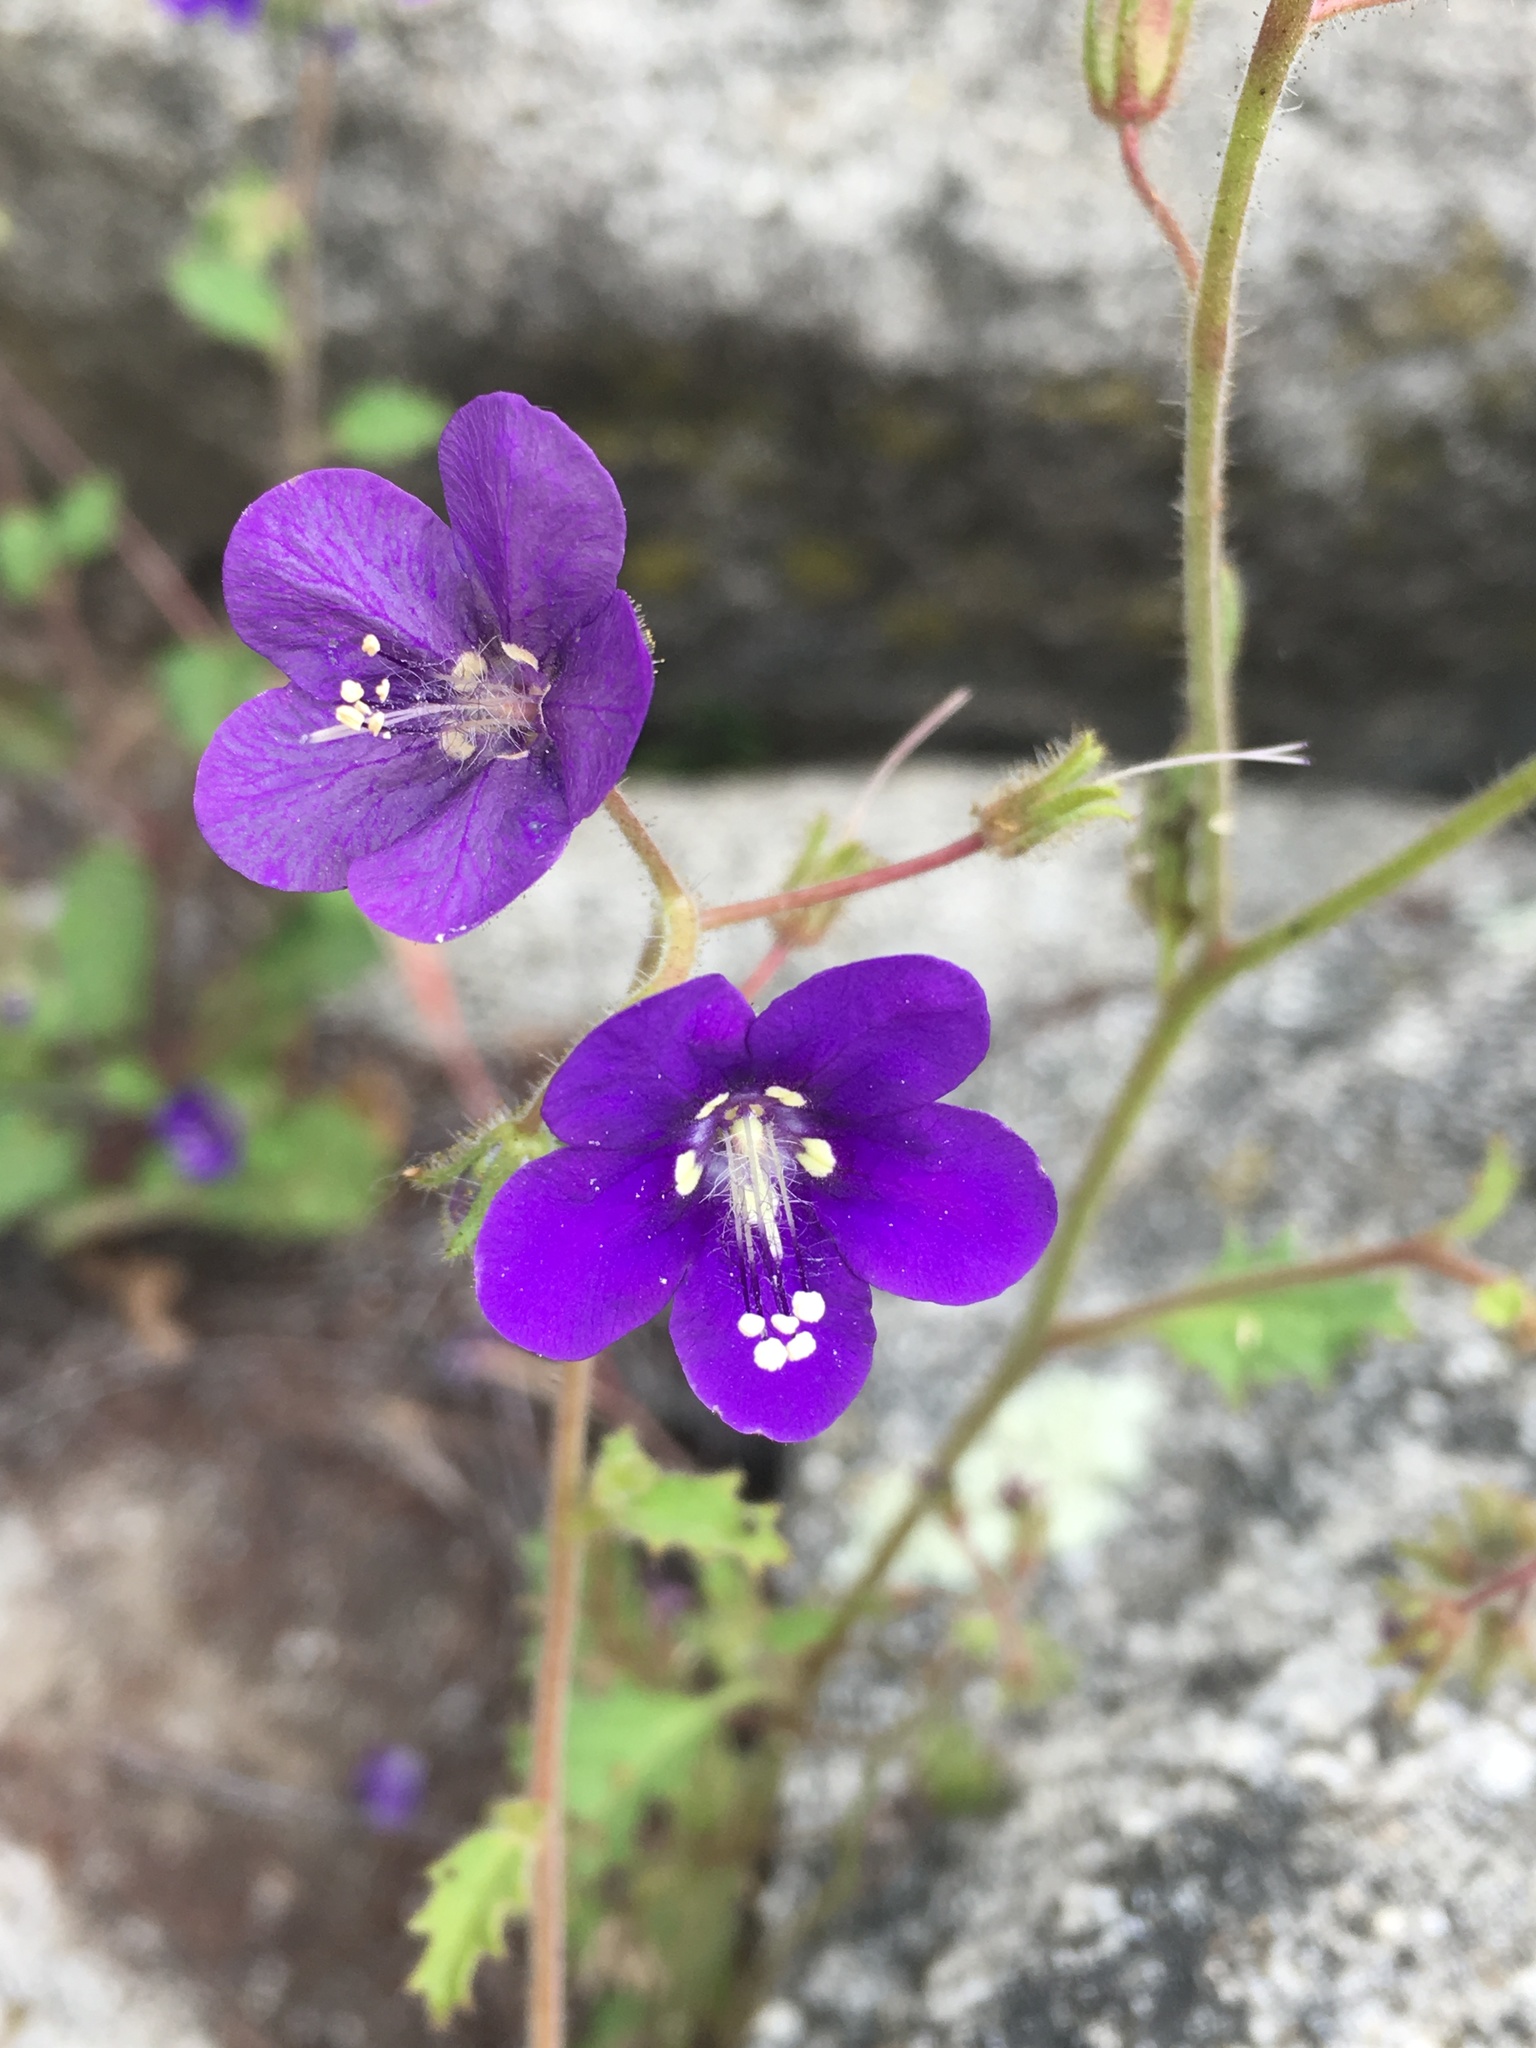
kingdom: Plantae
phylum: Tracheophyta
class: Magnoliopsida
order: Boraginales
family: Hydrophyllaceae
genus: Phacelia
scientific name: Phacelia parryi
